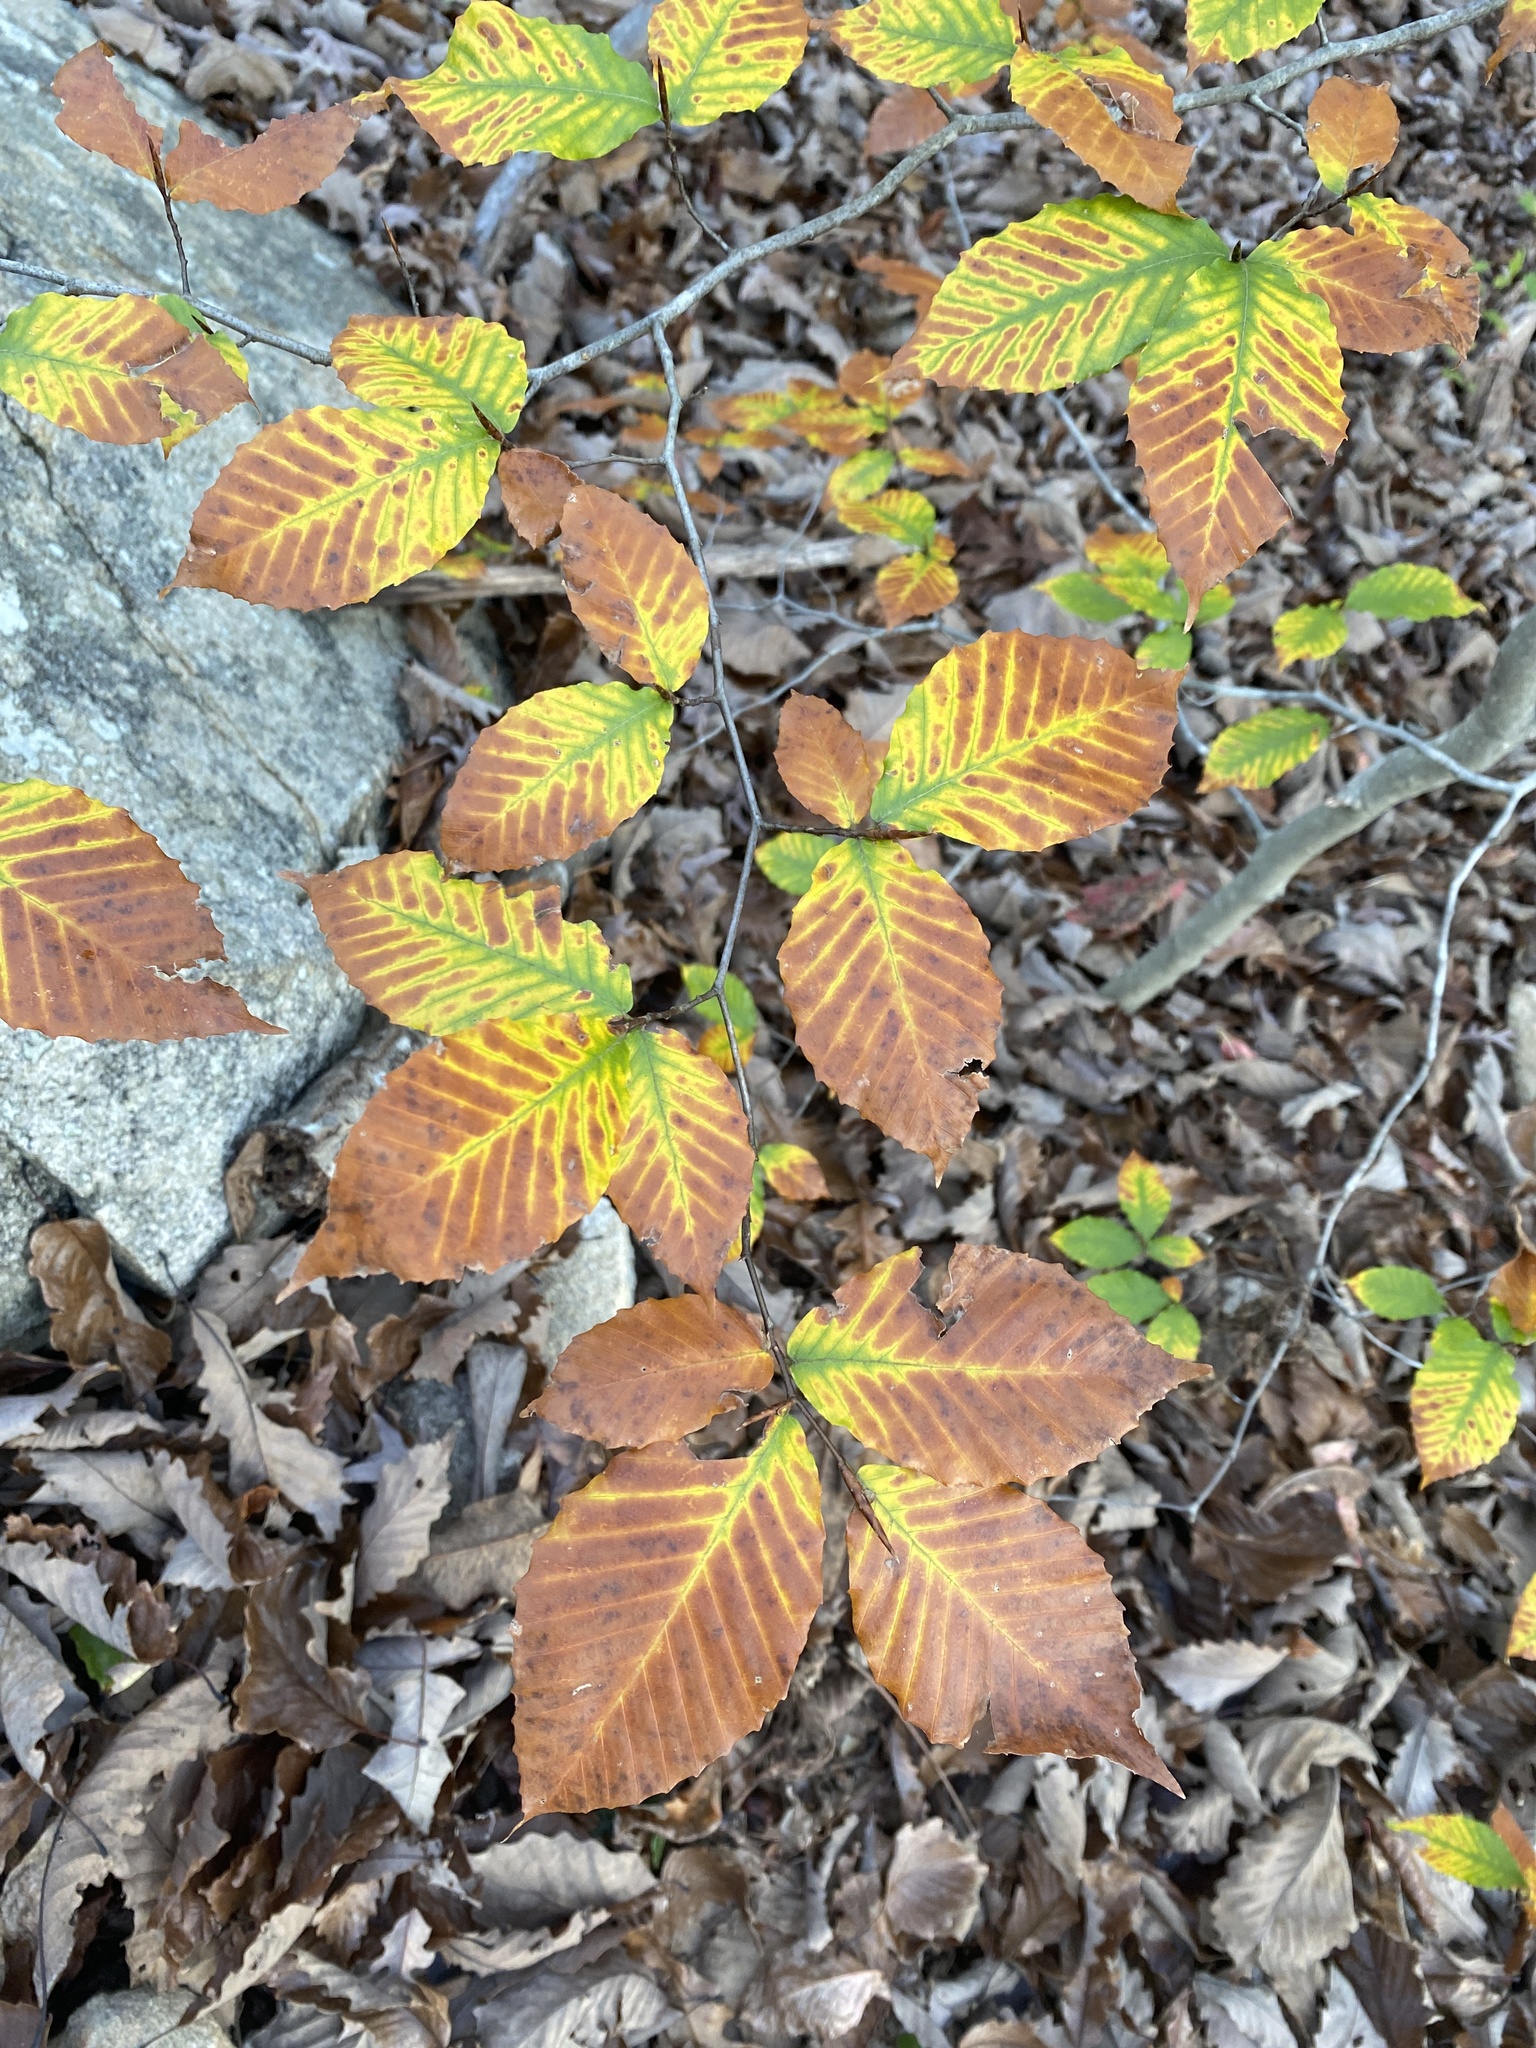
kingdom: Plantae
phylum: Tracheophyta
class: Magnoliopsida
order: Fagales
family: Fagaceae
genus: Fagus
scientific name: Fagus grandifolia
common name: American beech
